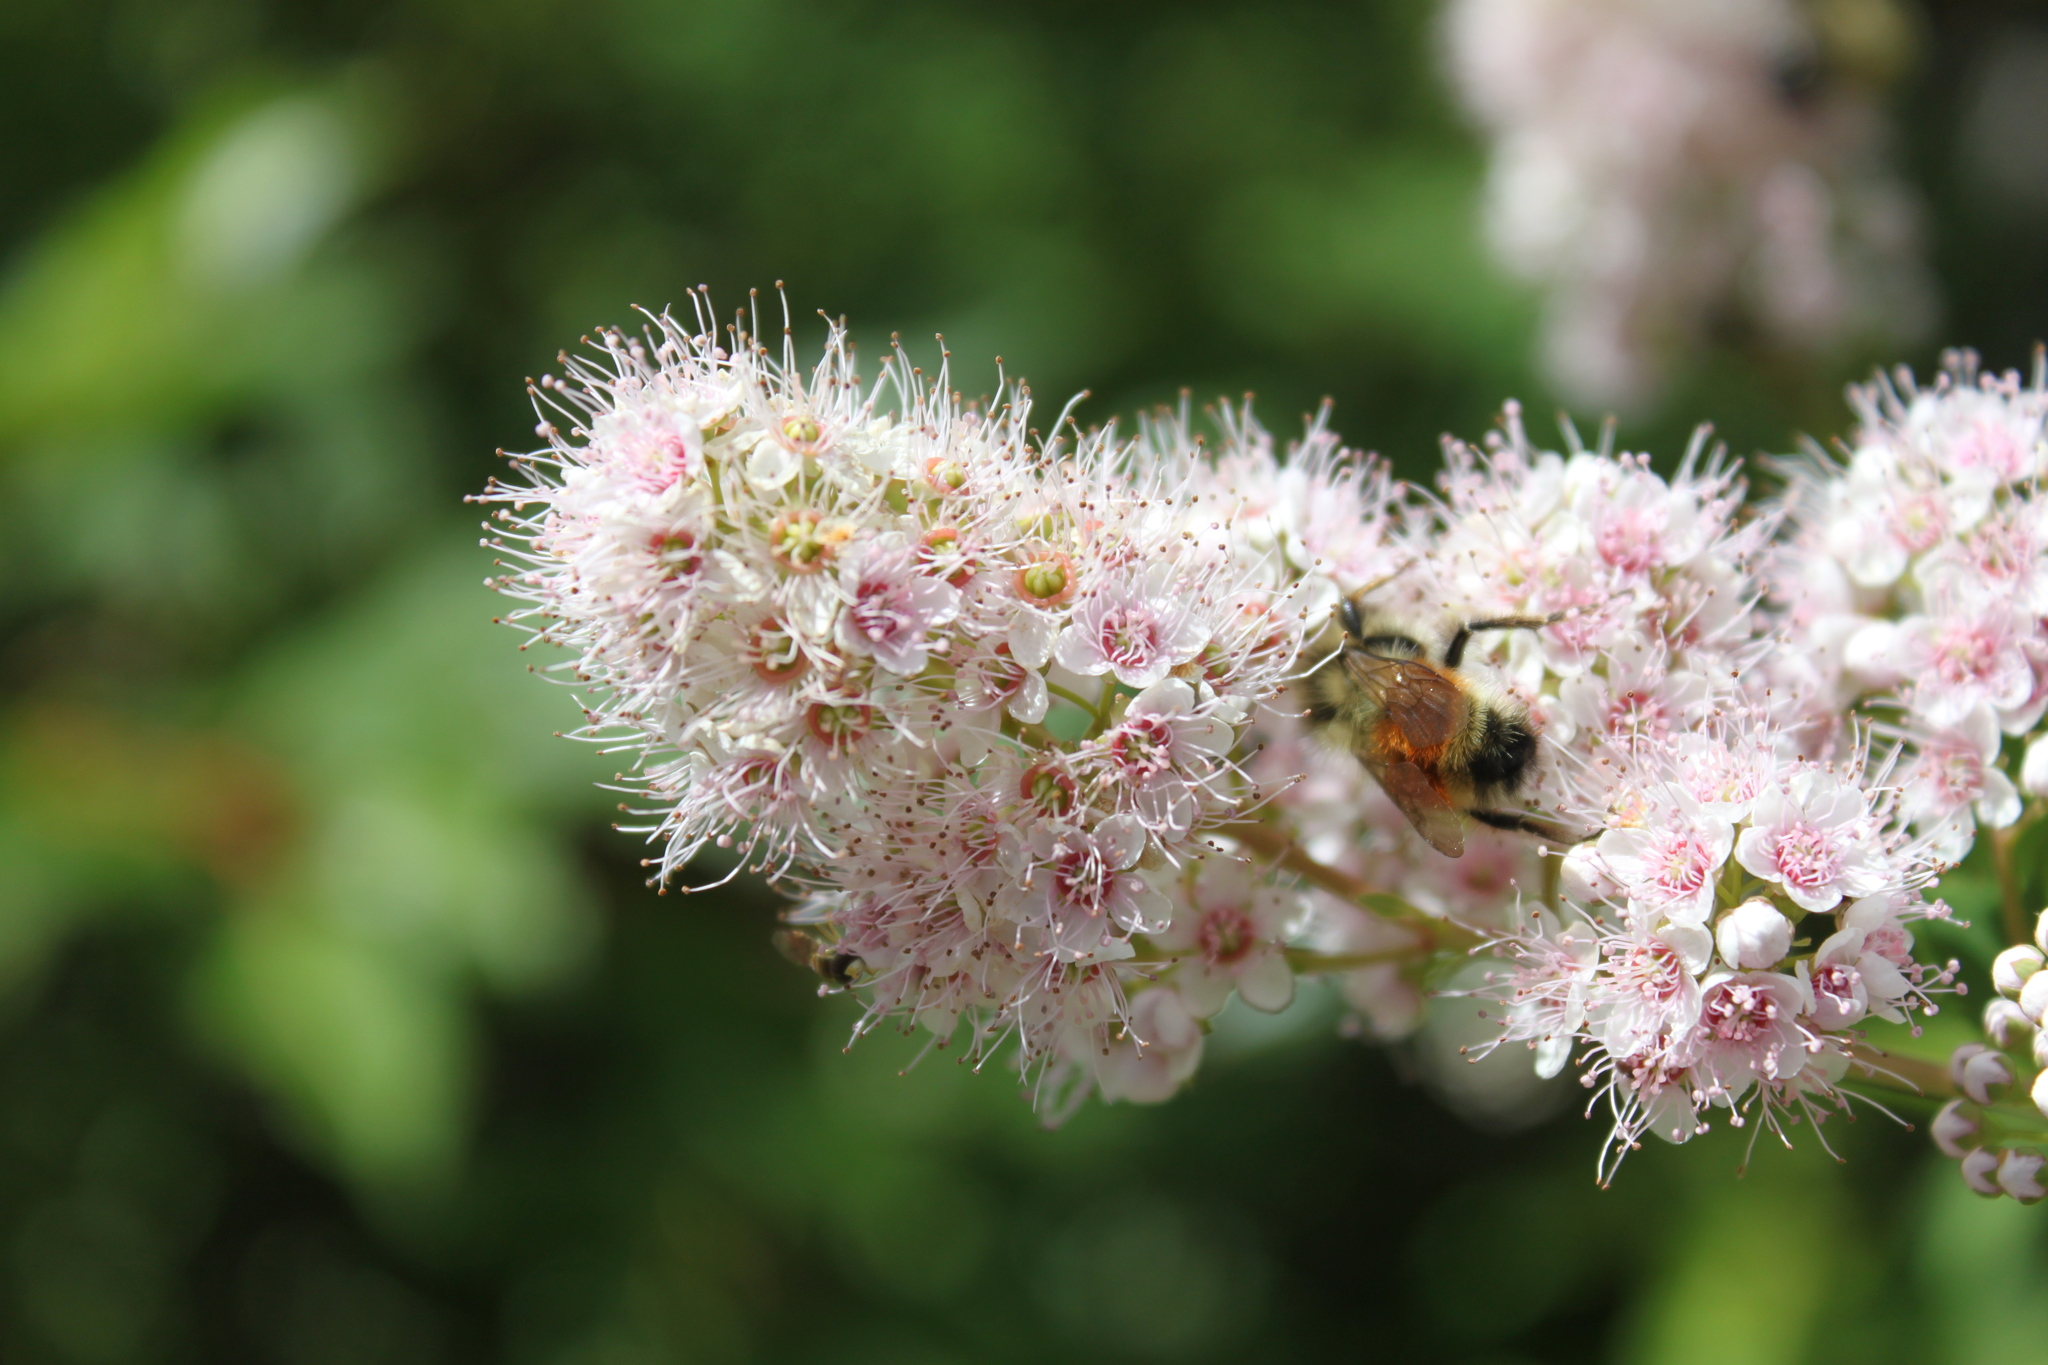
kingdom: Animalia
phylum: Arthropoda
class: Insecta
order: Hymenoptera
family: Apidae
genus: Bombus
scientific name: Bombus ternarius
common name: Tri-colored bumble bee
